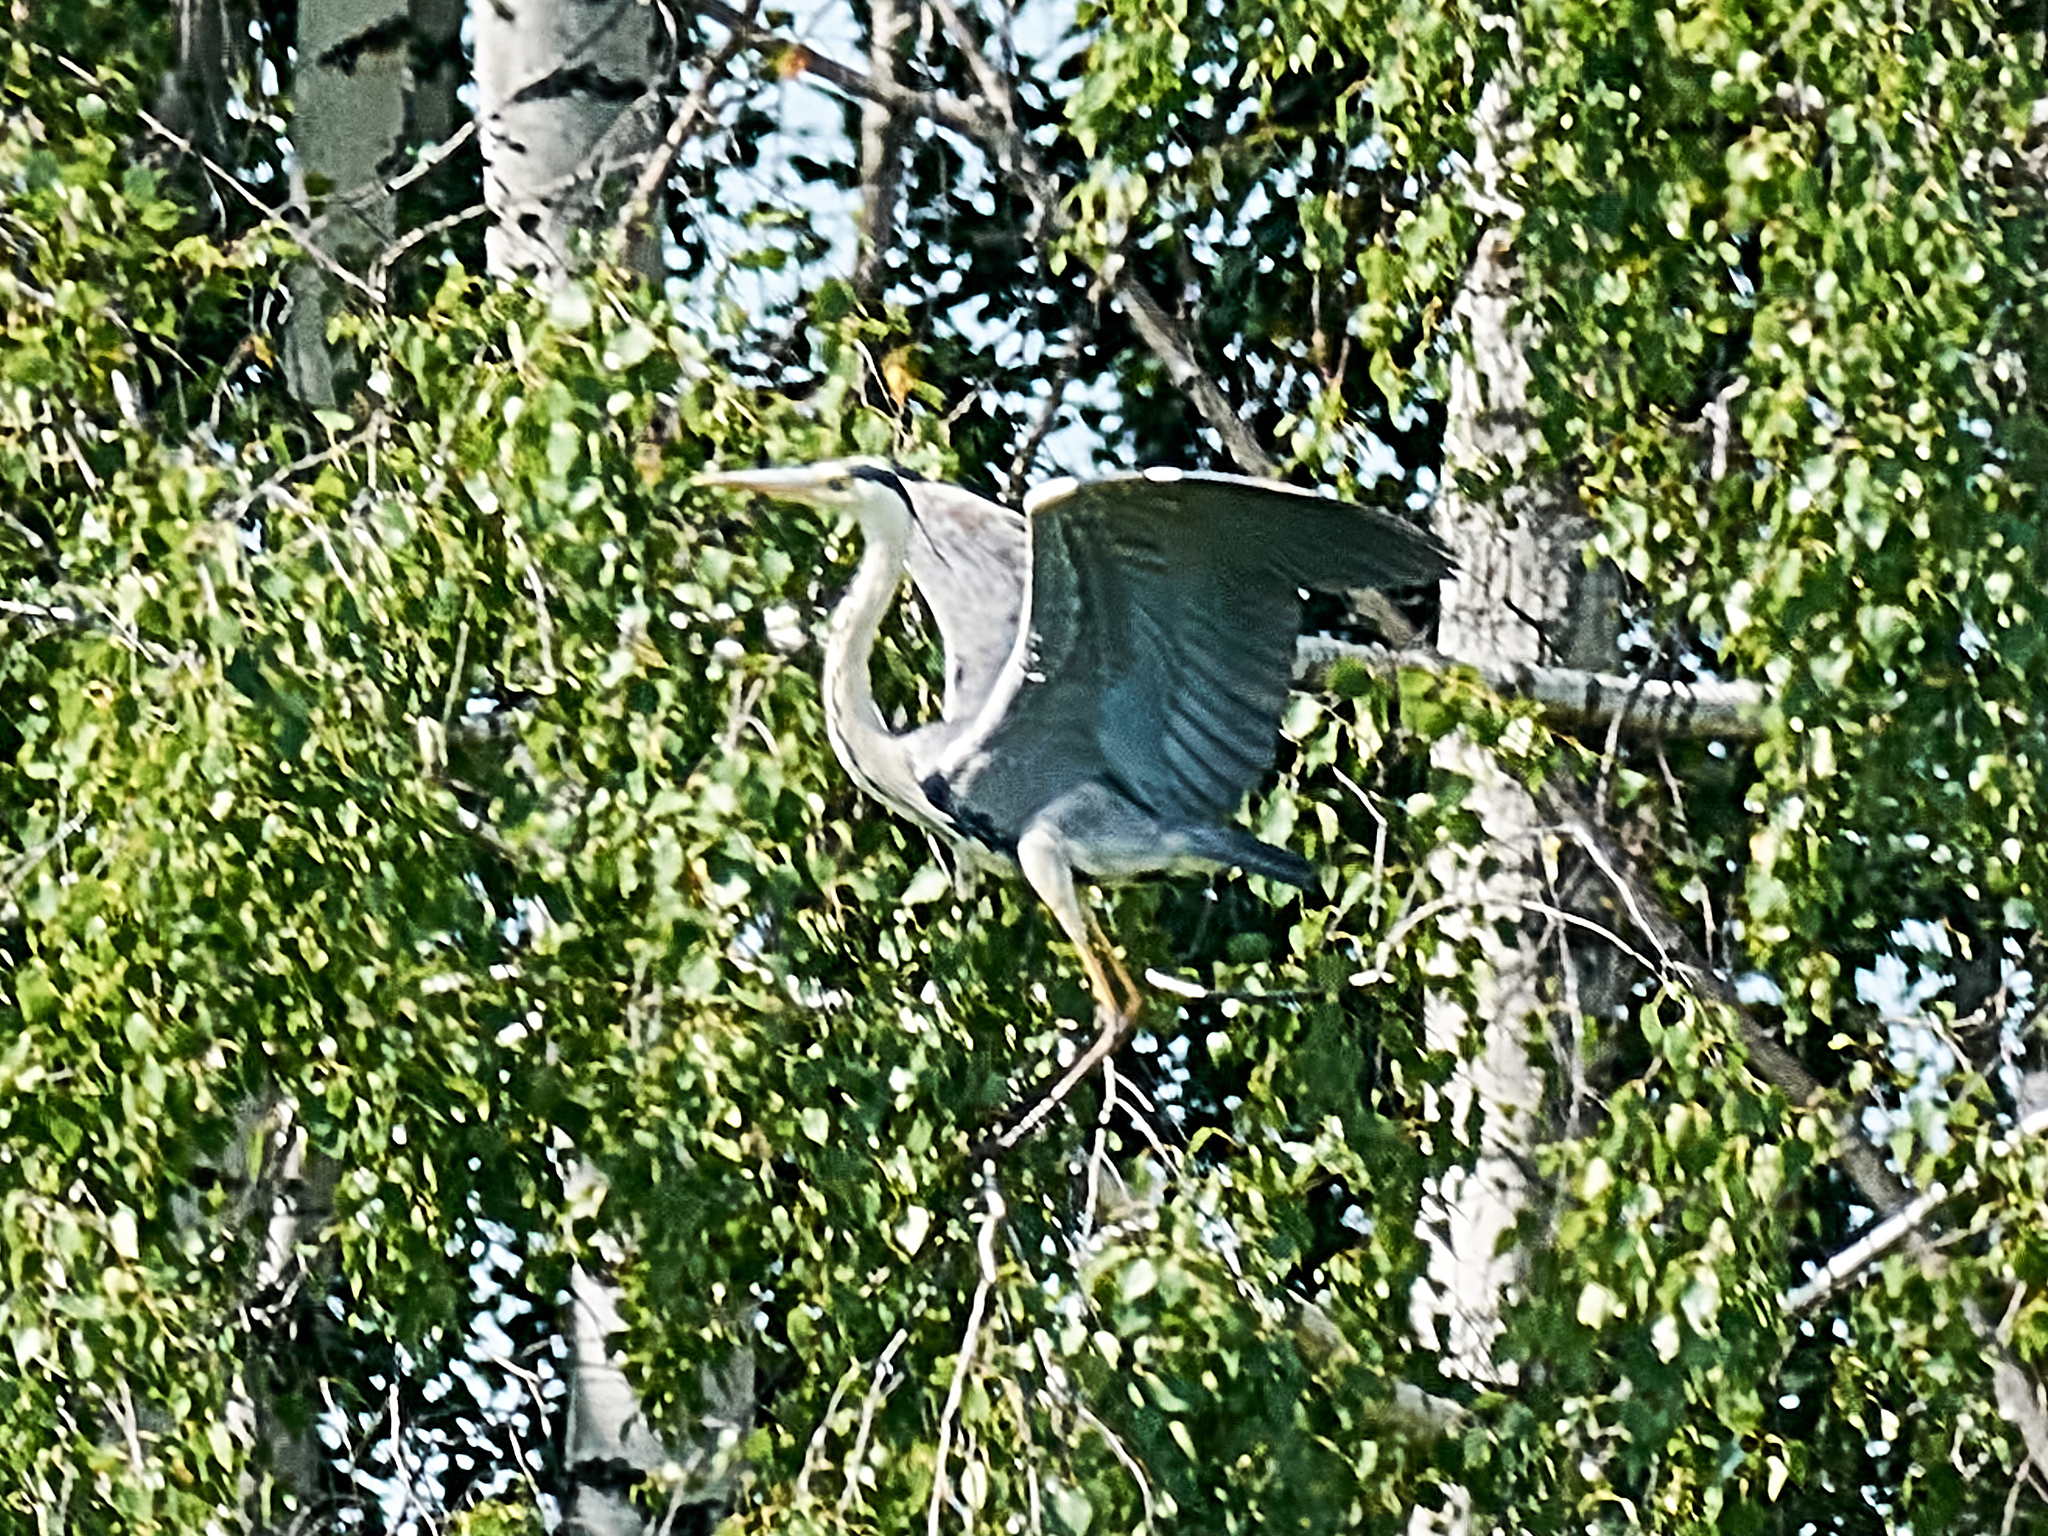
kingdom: Animalia
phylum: Chordata
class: Aves
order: Pelecaniformes
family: Ardeidae
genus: Ardea
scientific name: Ardea cinerea
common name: Grey heron
